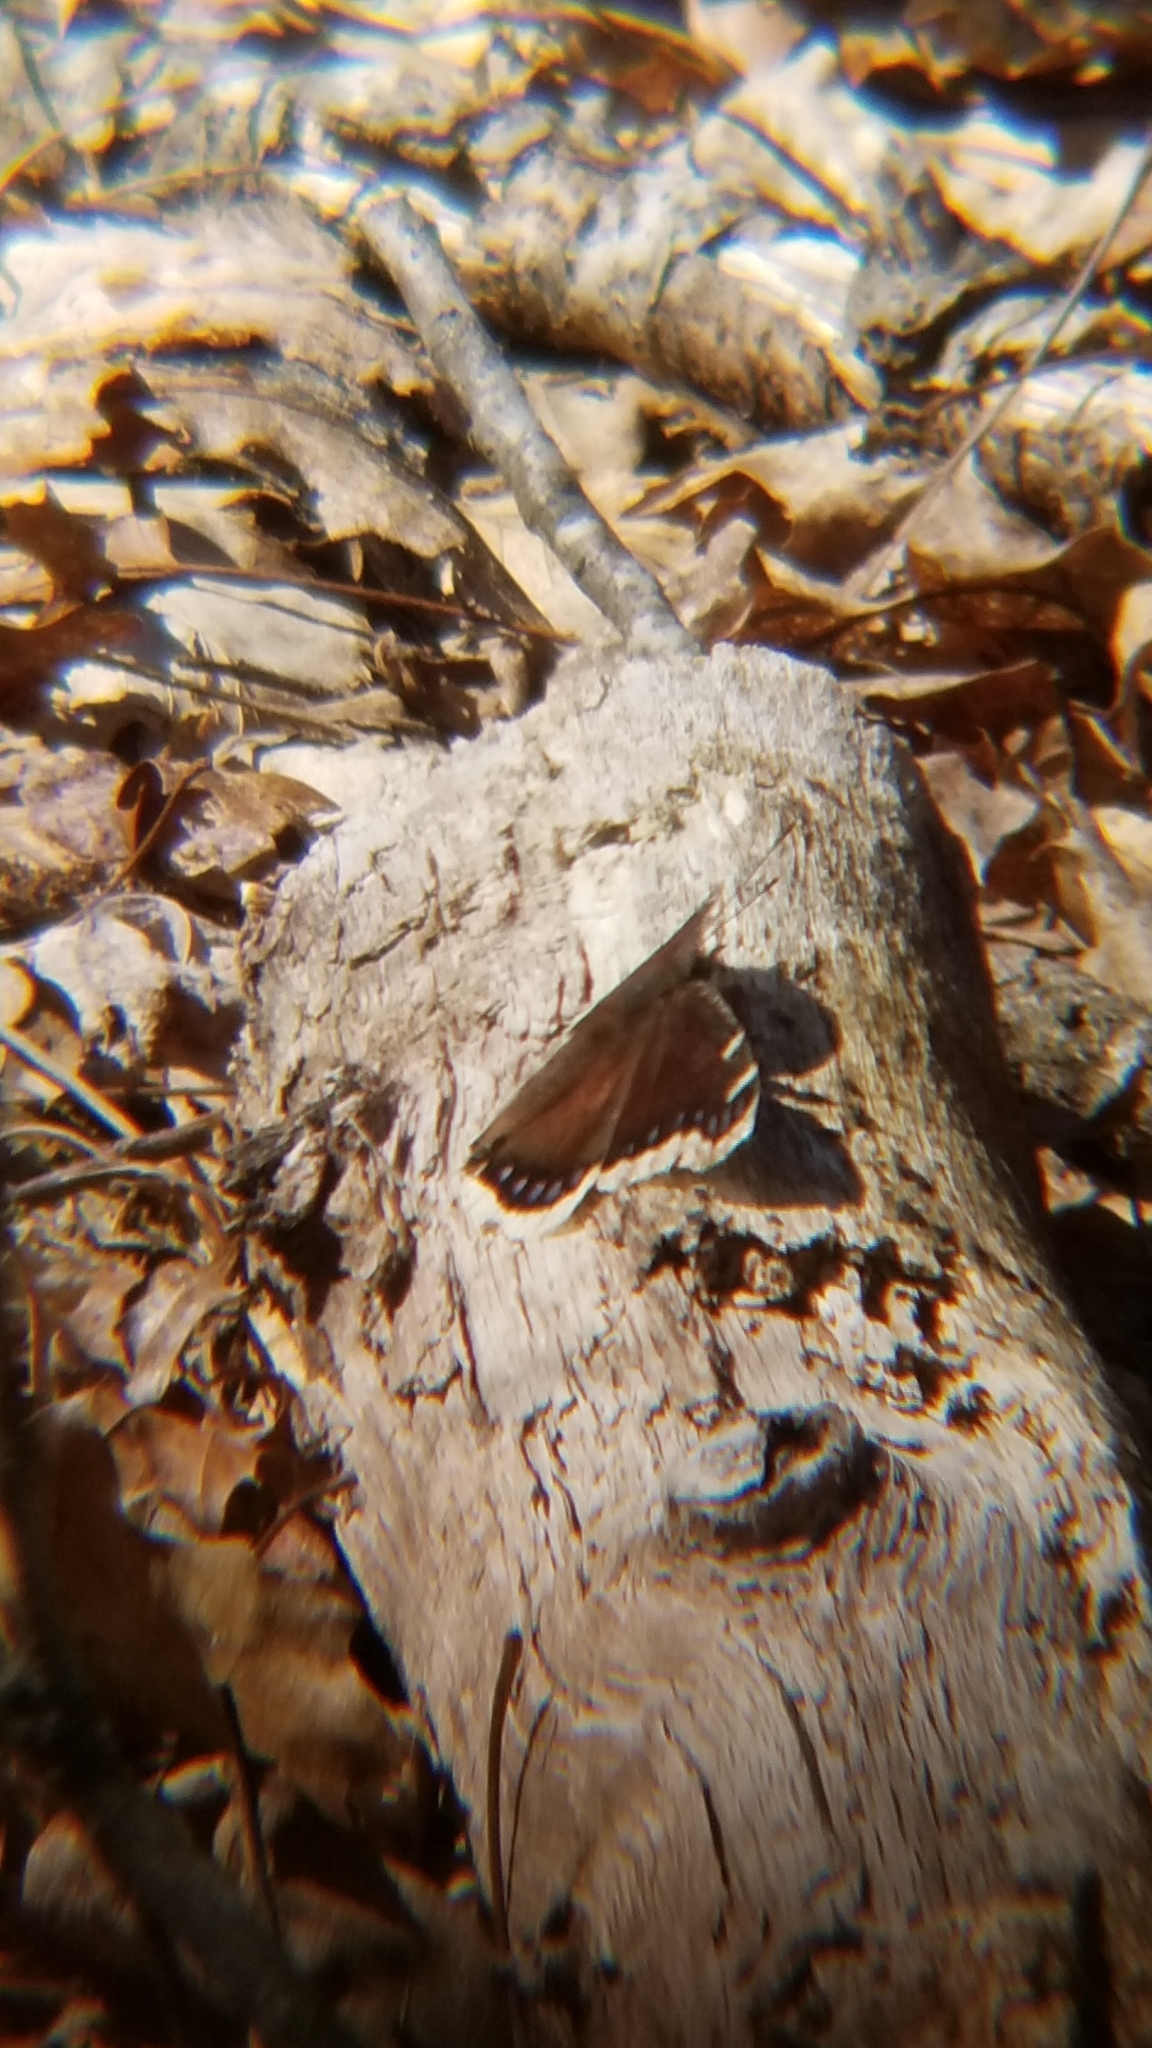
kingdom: Animalia
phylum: Arthropoda
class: Insecta
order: Lepidoptera
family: Nymphalidae
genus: Nymphalis
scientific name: Nymphalis antiopa
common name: Camberwell beauty
